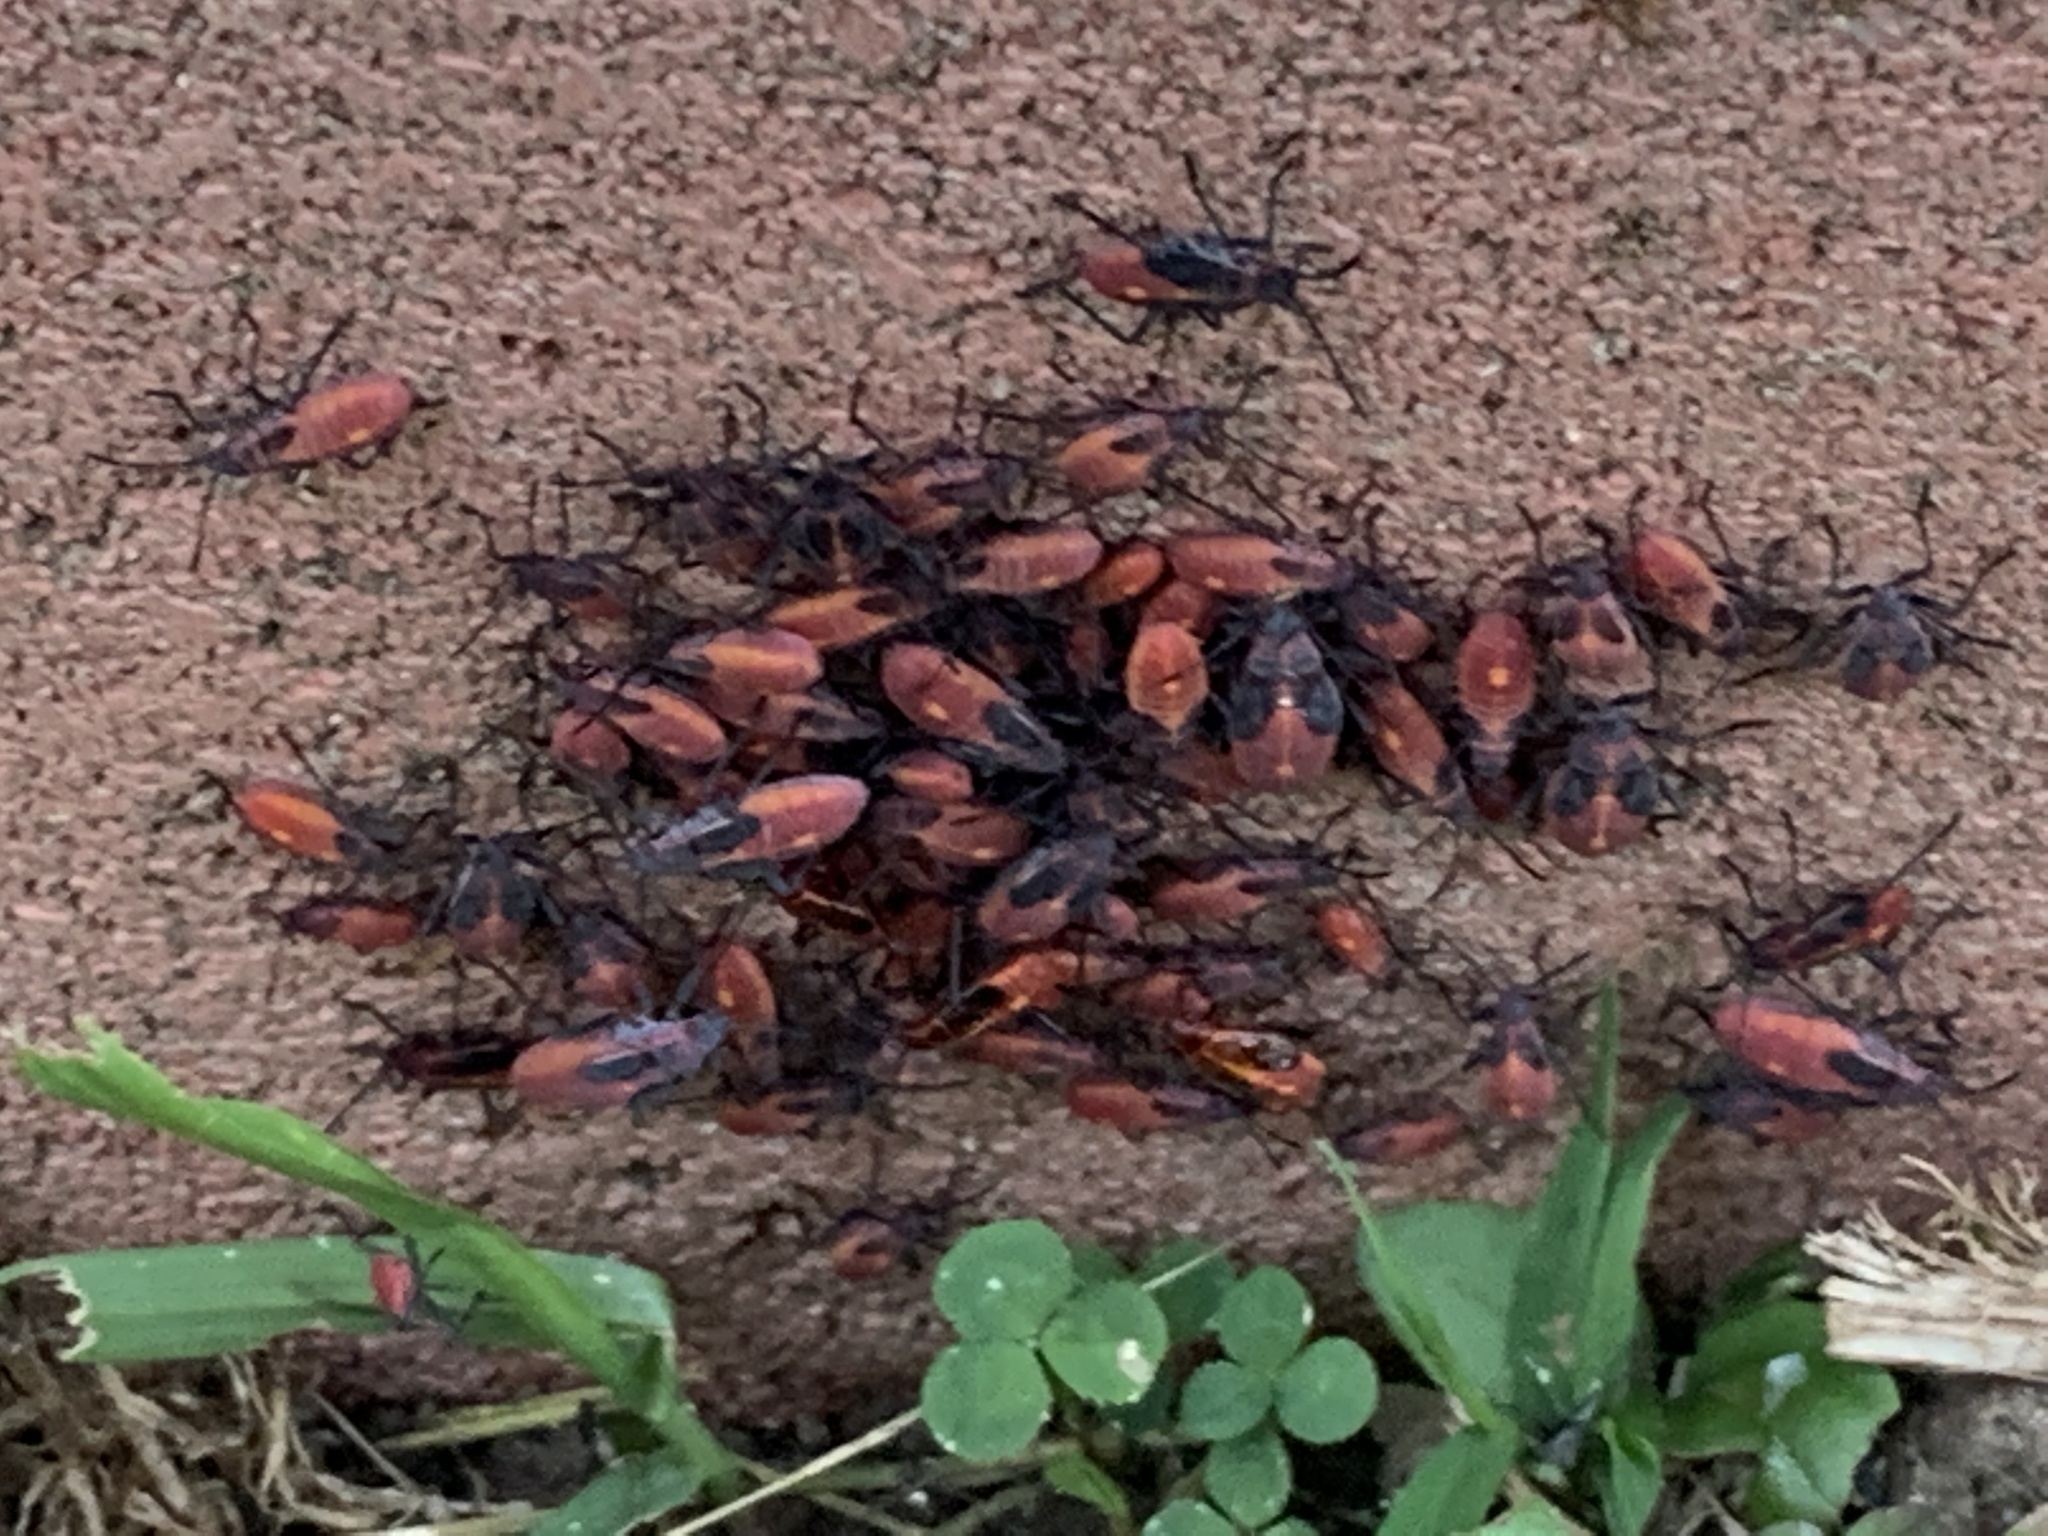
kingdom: Animalia
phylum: Arthropoda
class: Insecta
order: Hemiptera
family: Rhopalidae
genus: Boisea
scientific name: Boisea trivittata
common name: Boxelder bug
